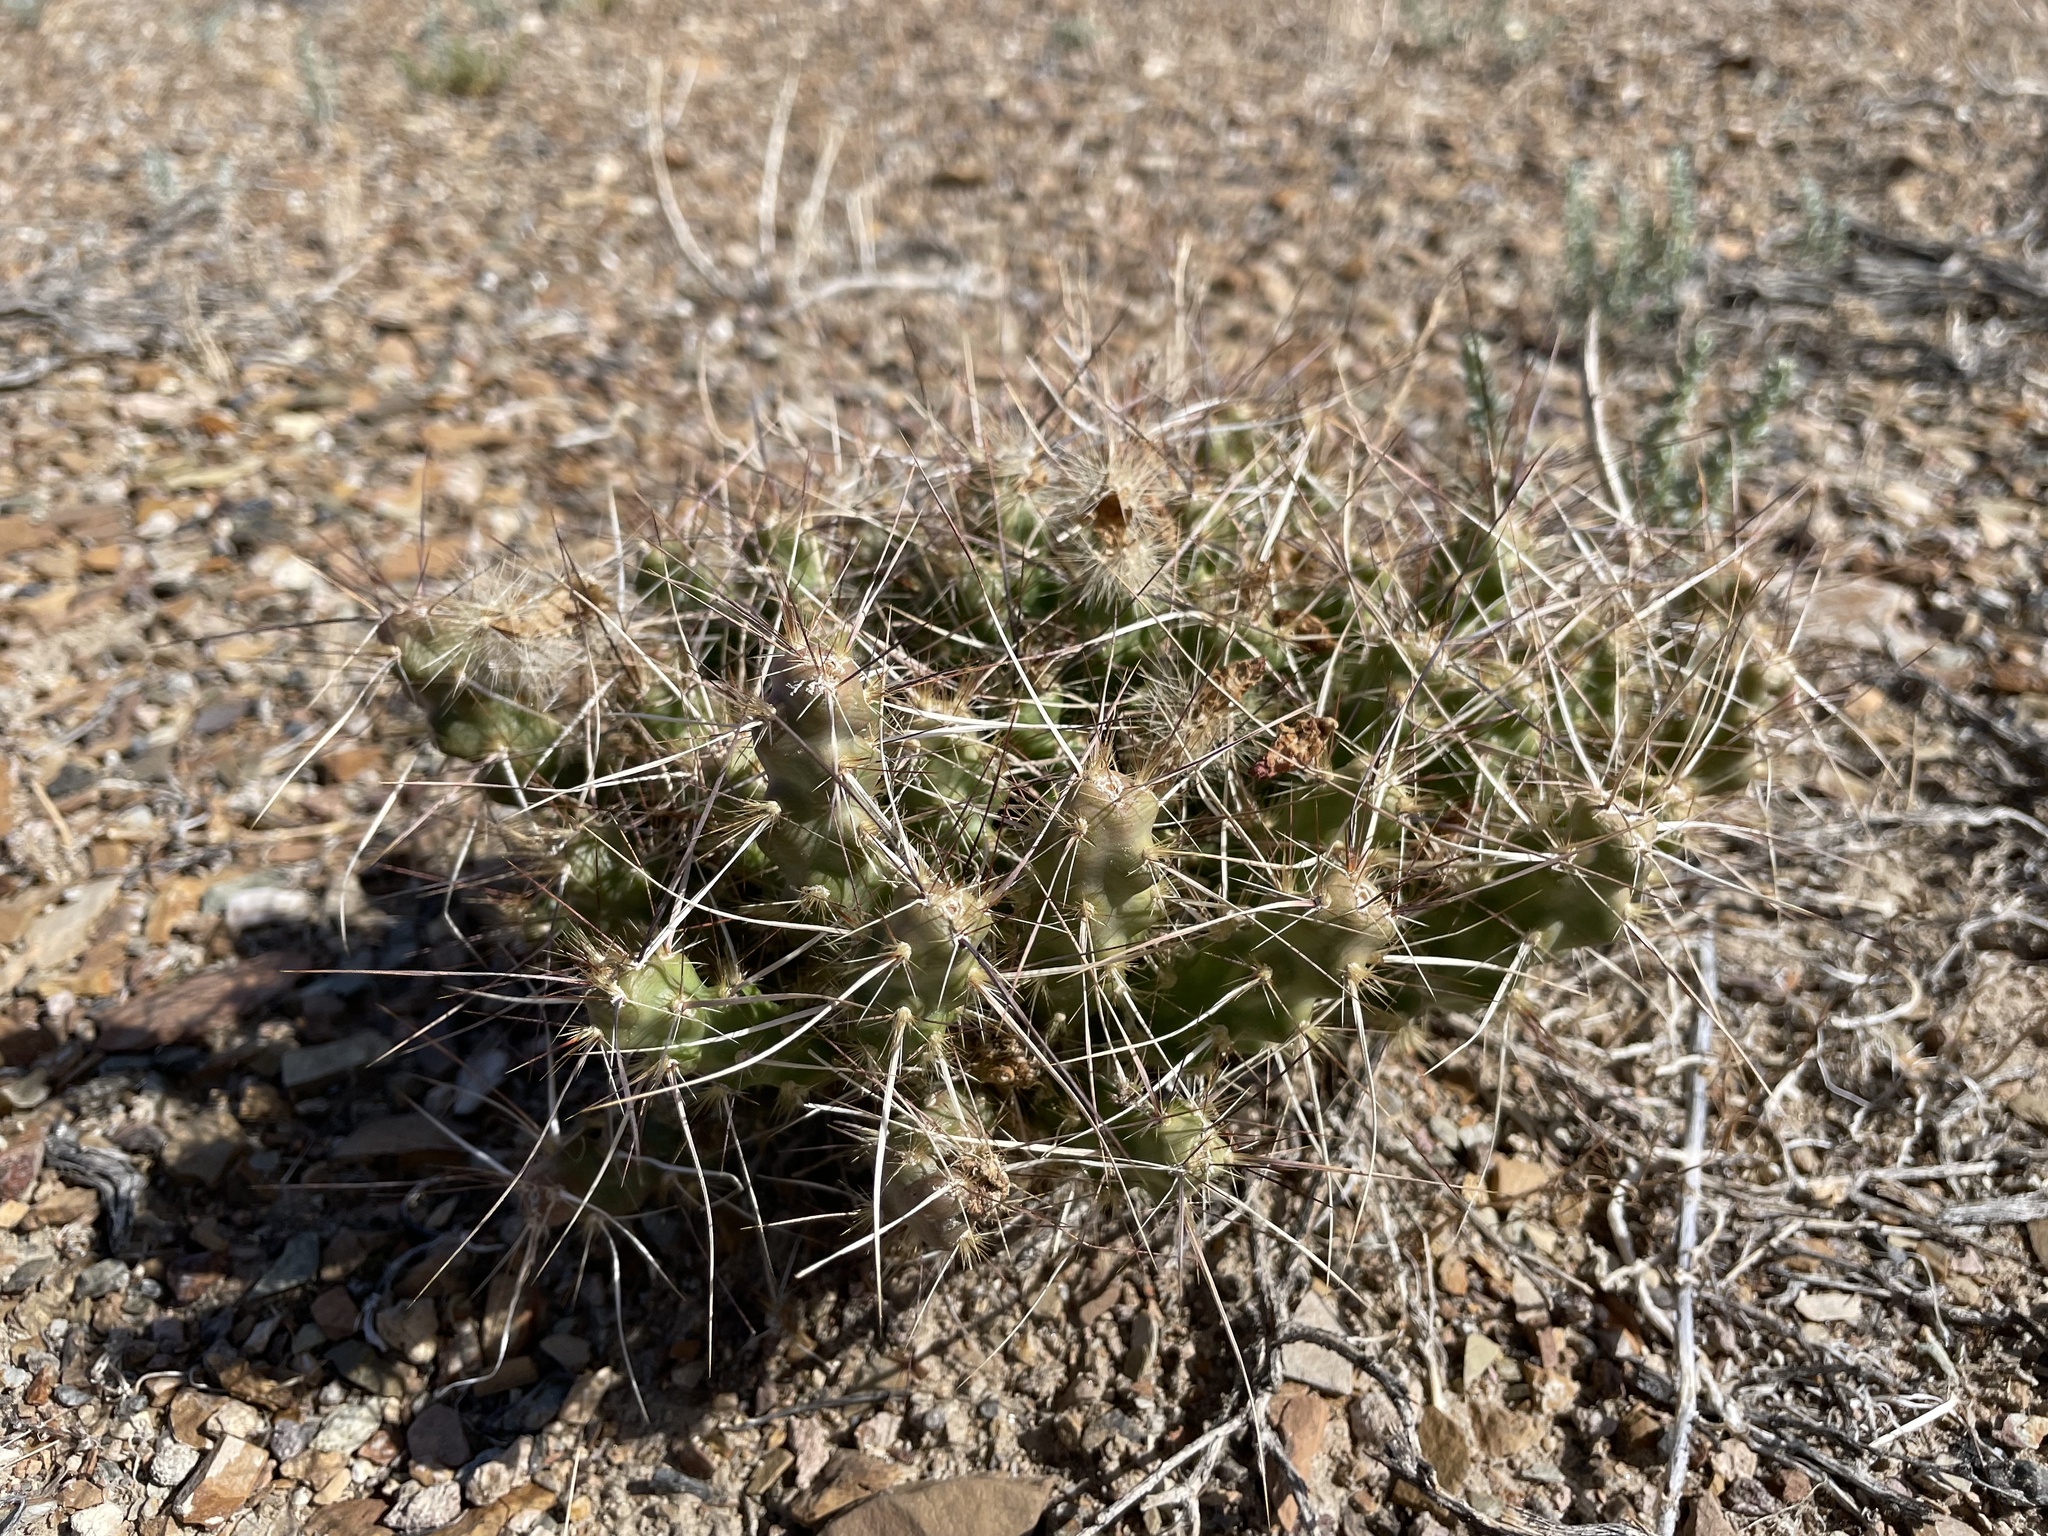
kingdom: Plantae
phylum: Tracheophyta
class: Magnoliopsida
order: Caryophyllales
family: Cactaceae
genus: Micropuntia
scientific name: Micropuntia pulchella
